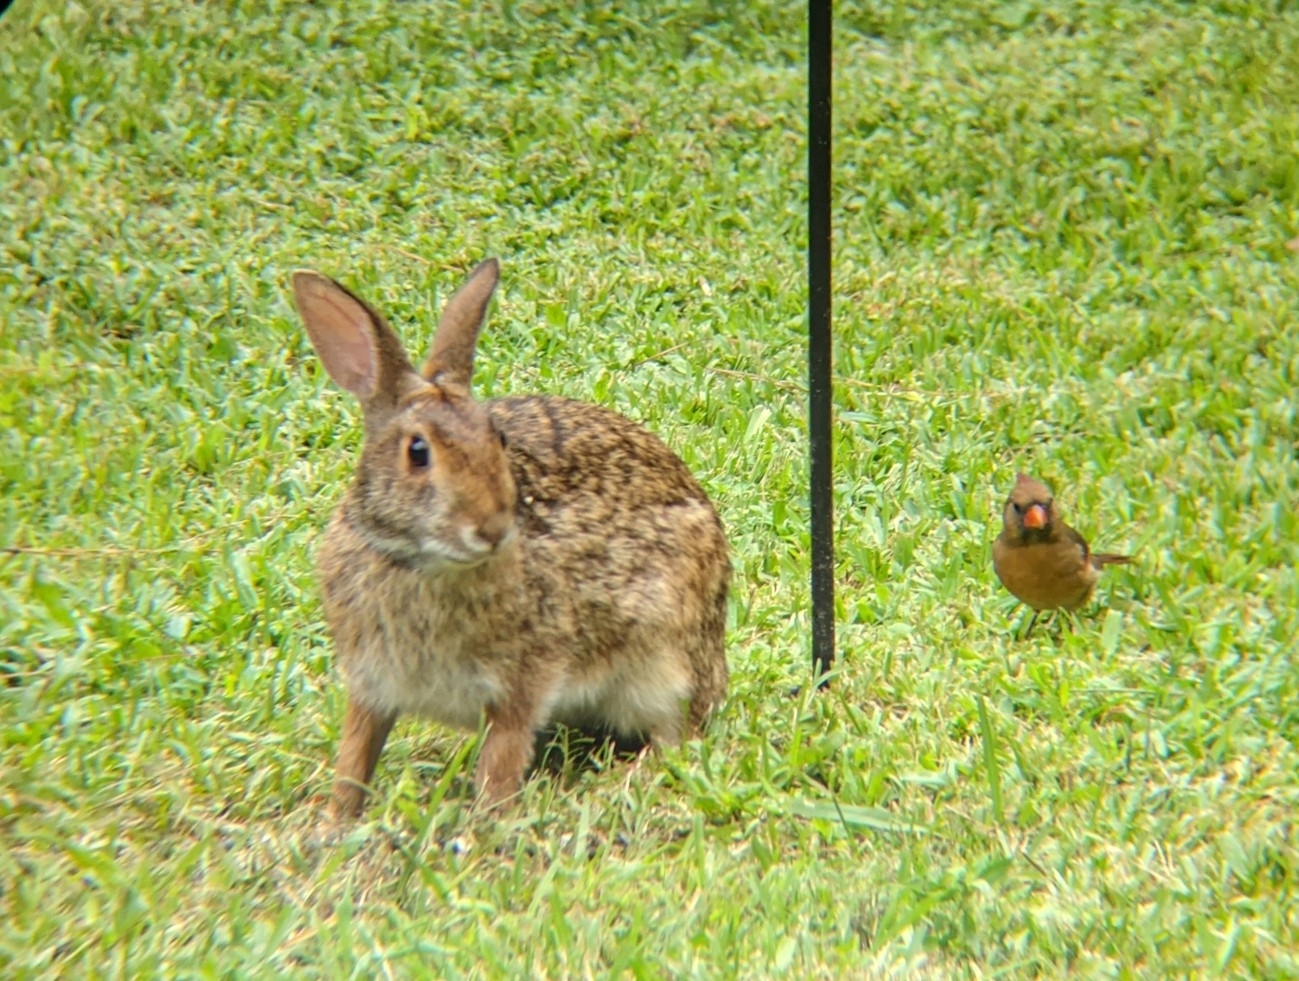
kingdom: Animalia
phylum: Chordata
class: Aves
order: Passeriformes
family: Cardinalidae
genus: Cardinalis
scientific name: Cardinalis cardinalis
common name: Northern cardinal
